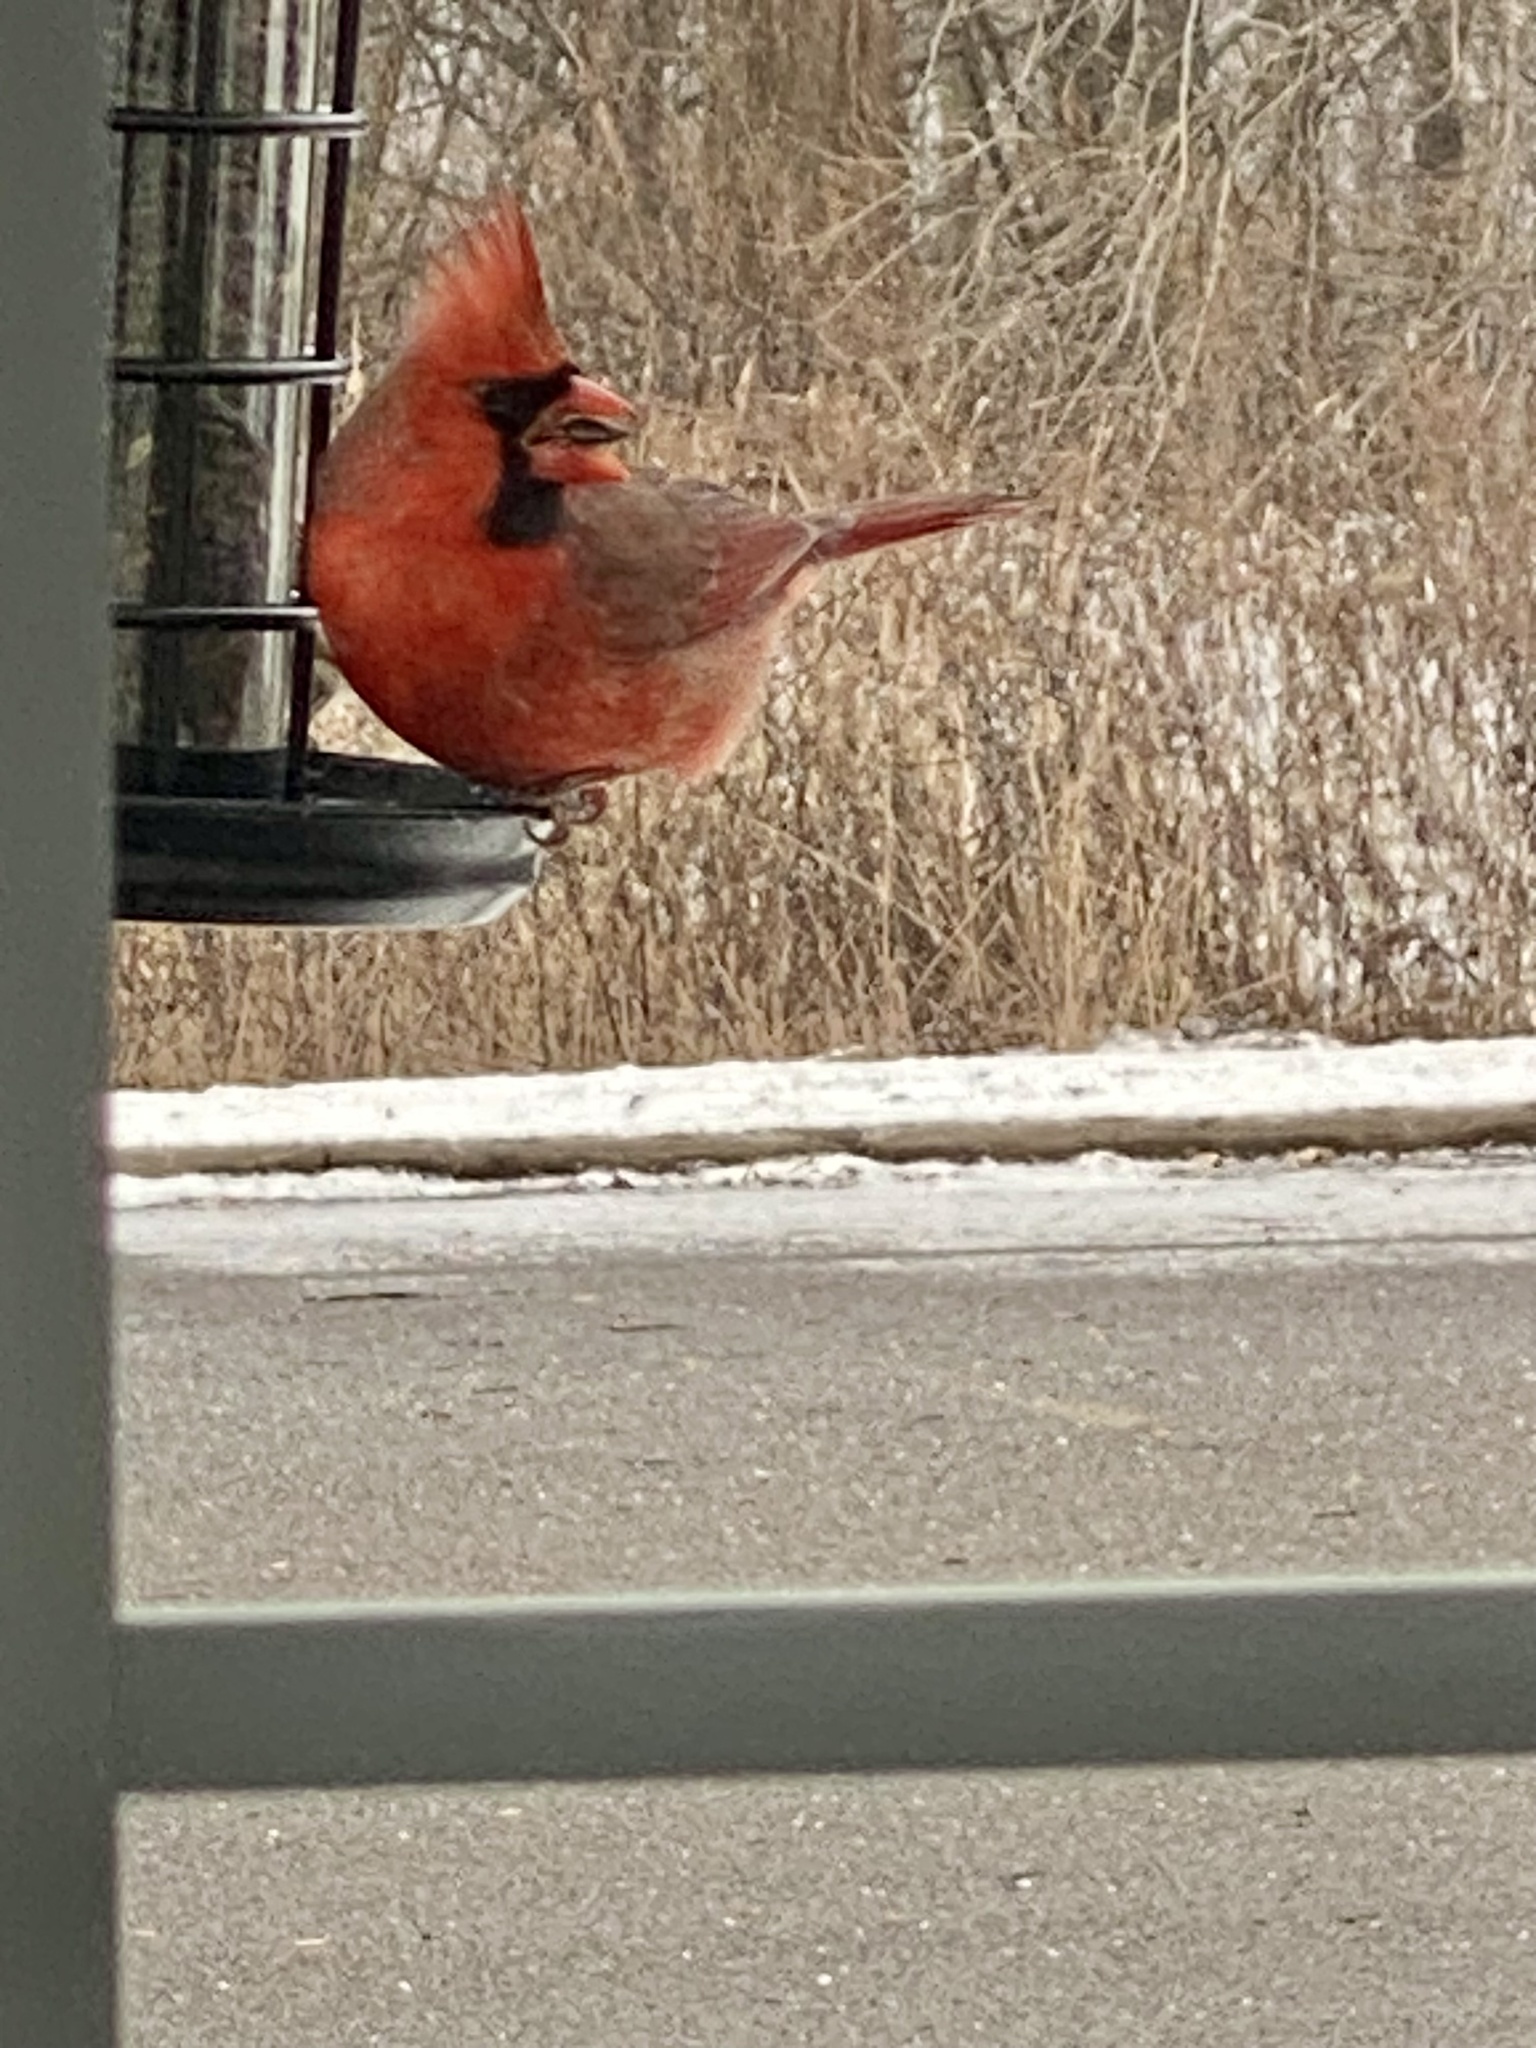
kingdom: Animalia
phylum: Chordata
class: Aves
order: Passeriformes
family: Cardinalidae
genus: Cardinalis
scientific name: Cardinalis cardinalis
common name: Northern cardinal
